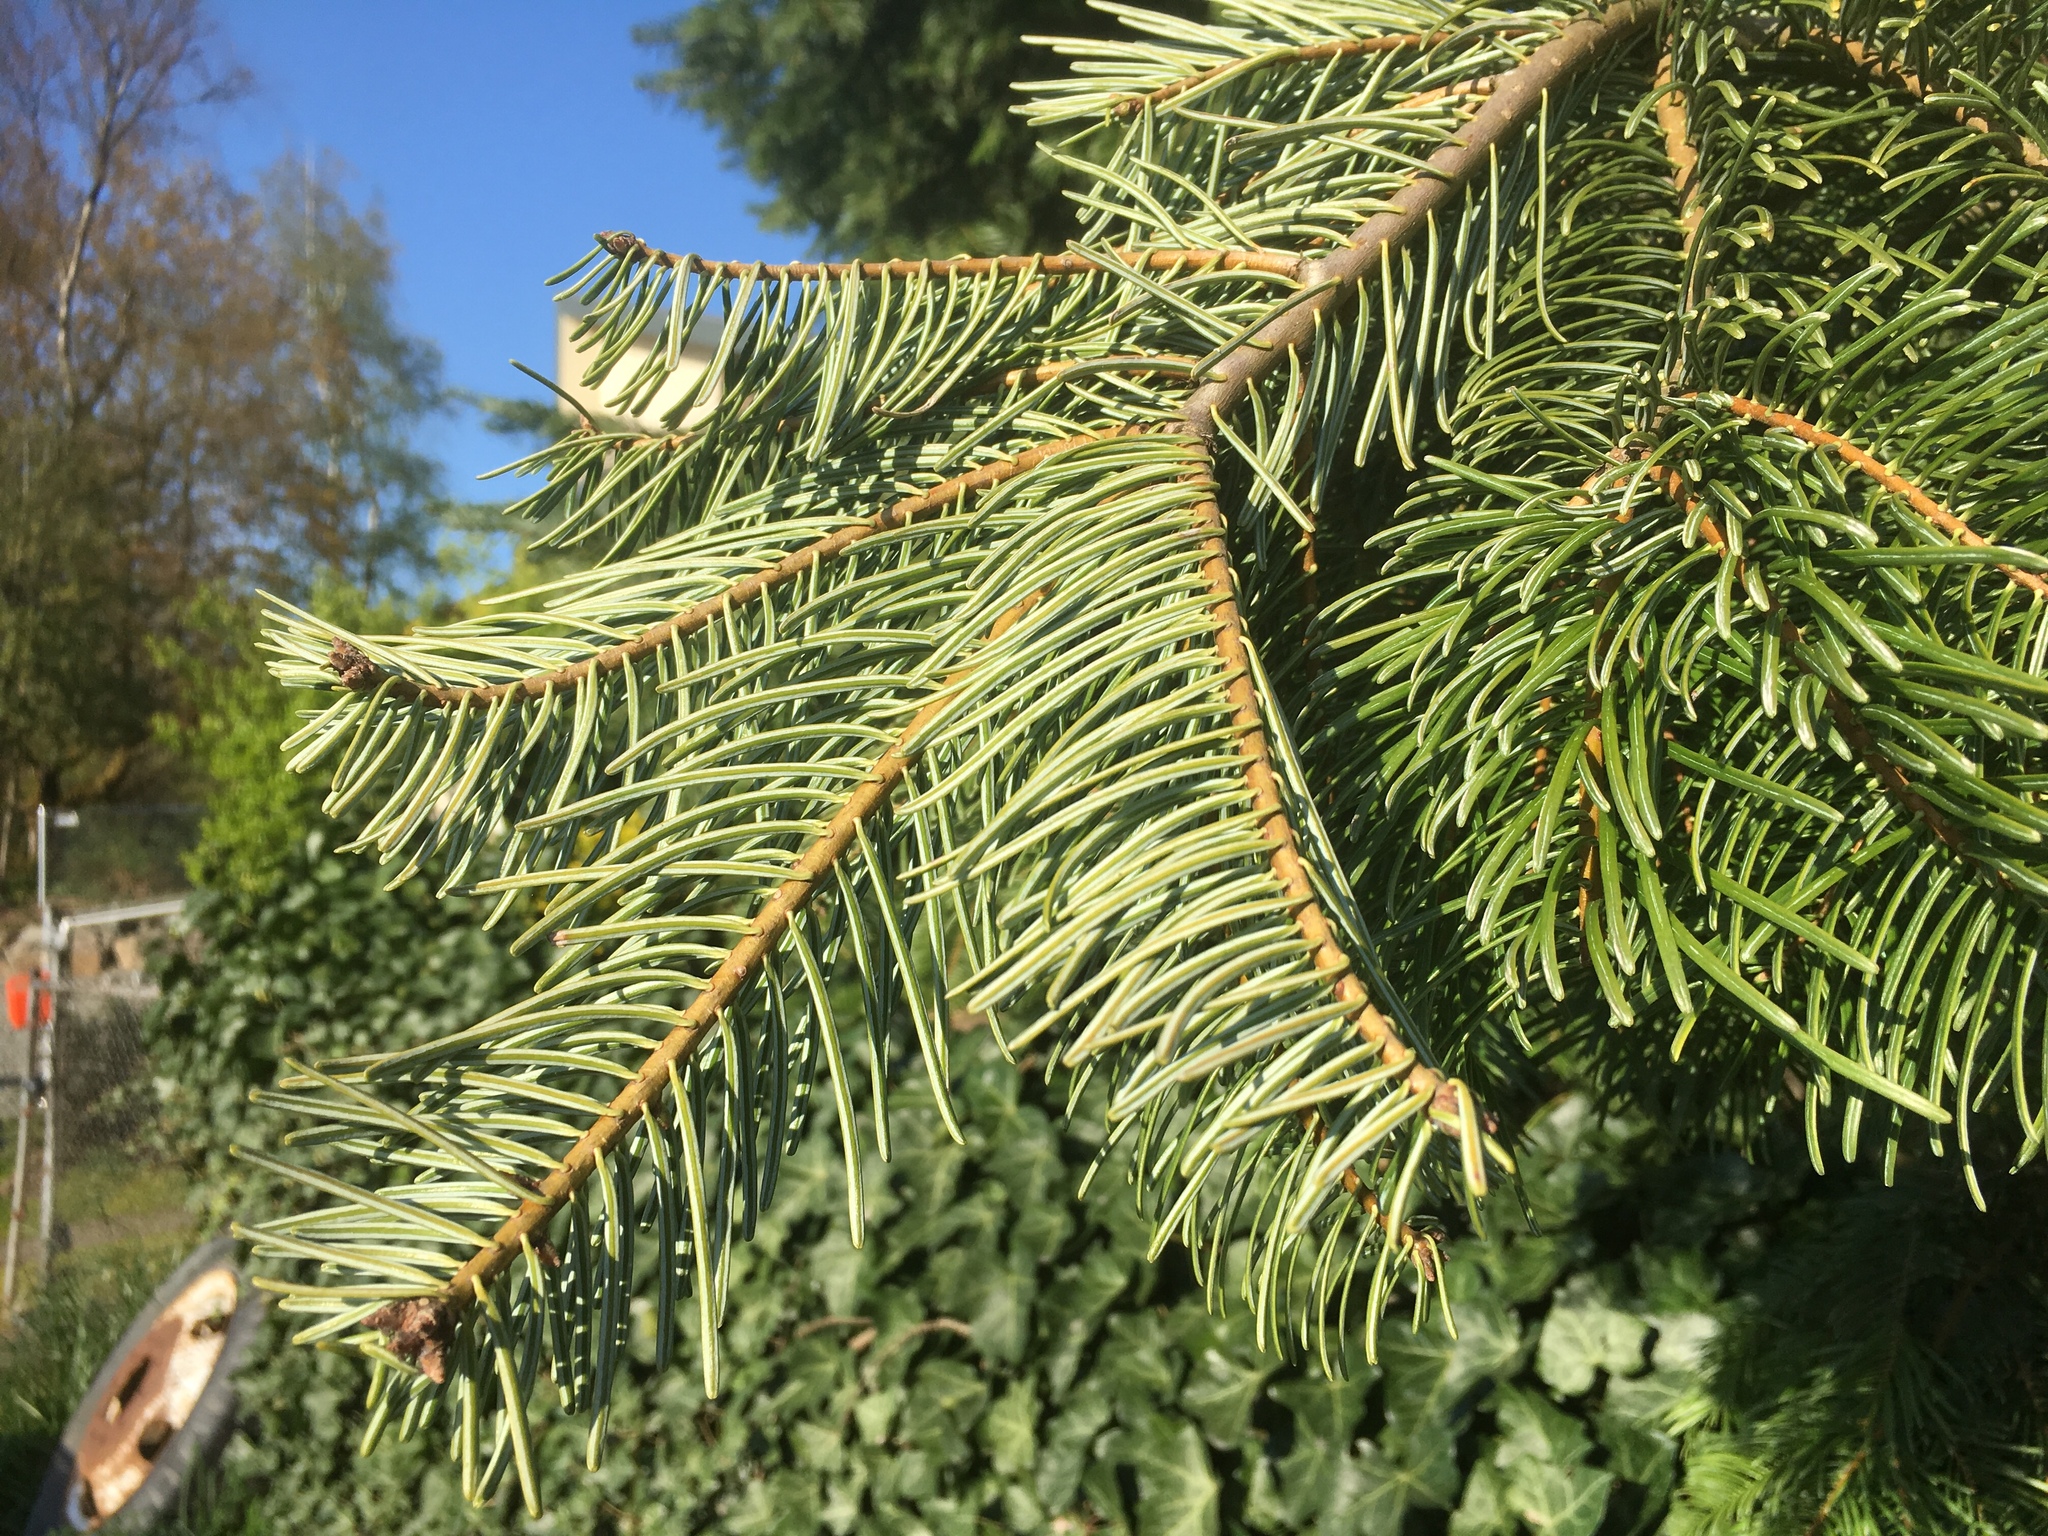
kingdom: Plantae
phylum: Tracheophyta
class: Pinopsida
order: Pinales
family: Pinaceae
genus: Abies
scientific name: Abies grandis
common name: Giant fir
